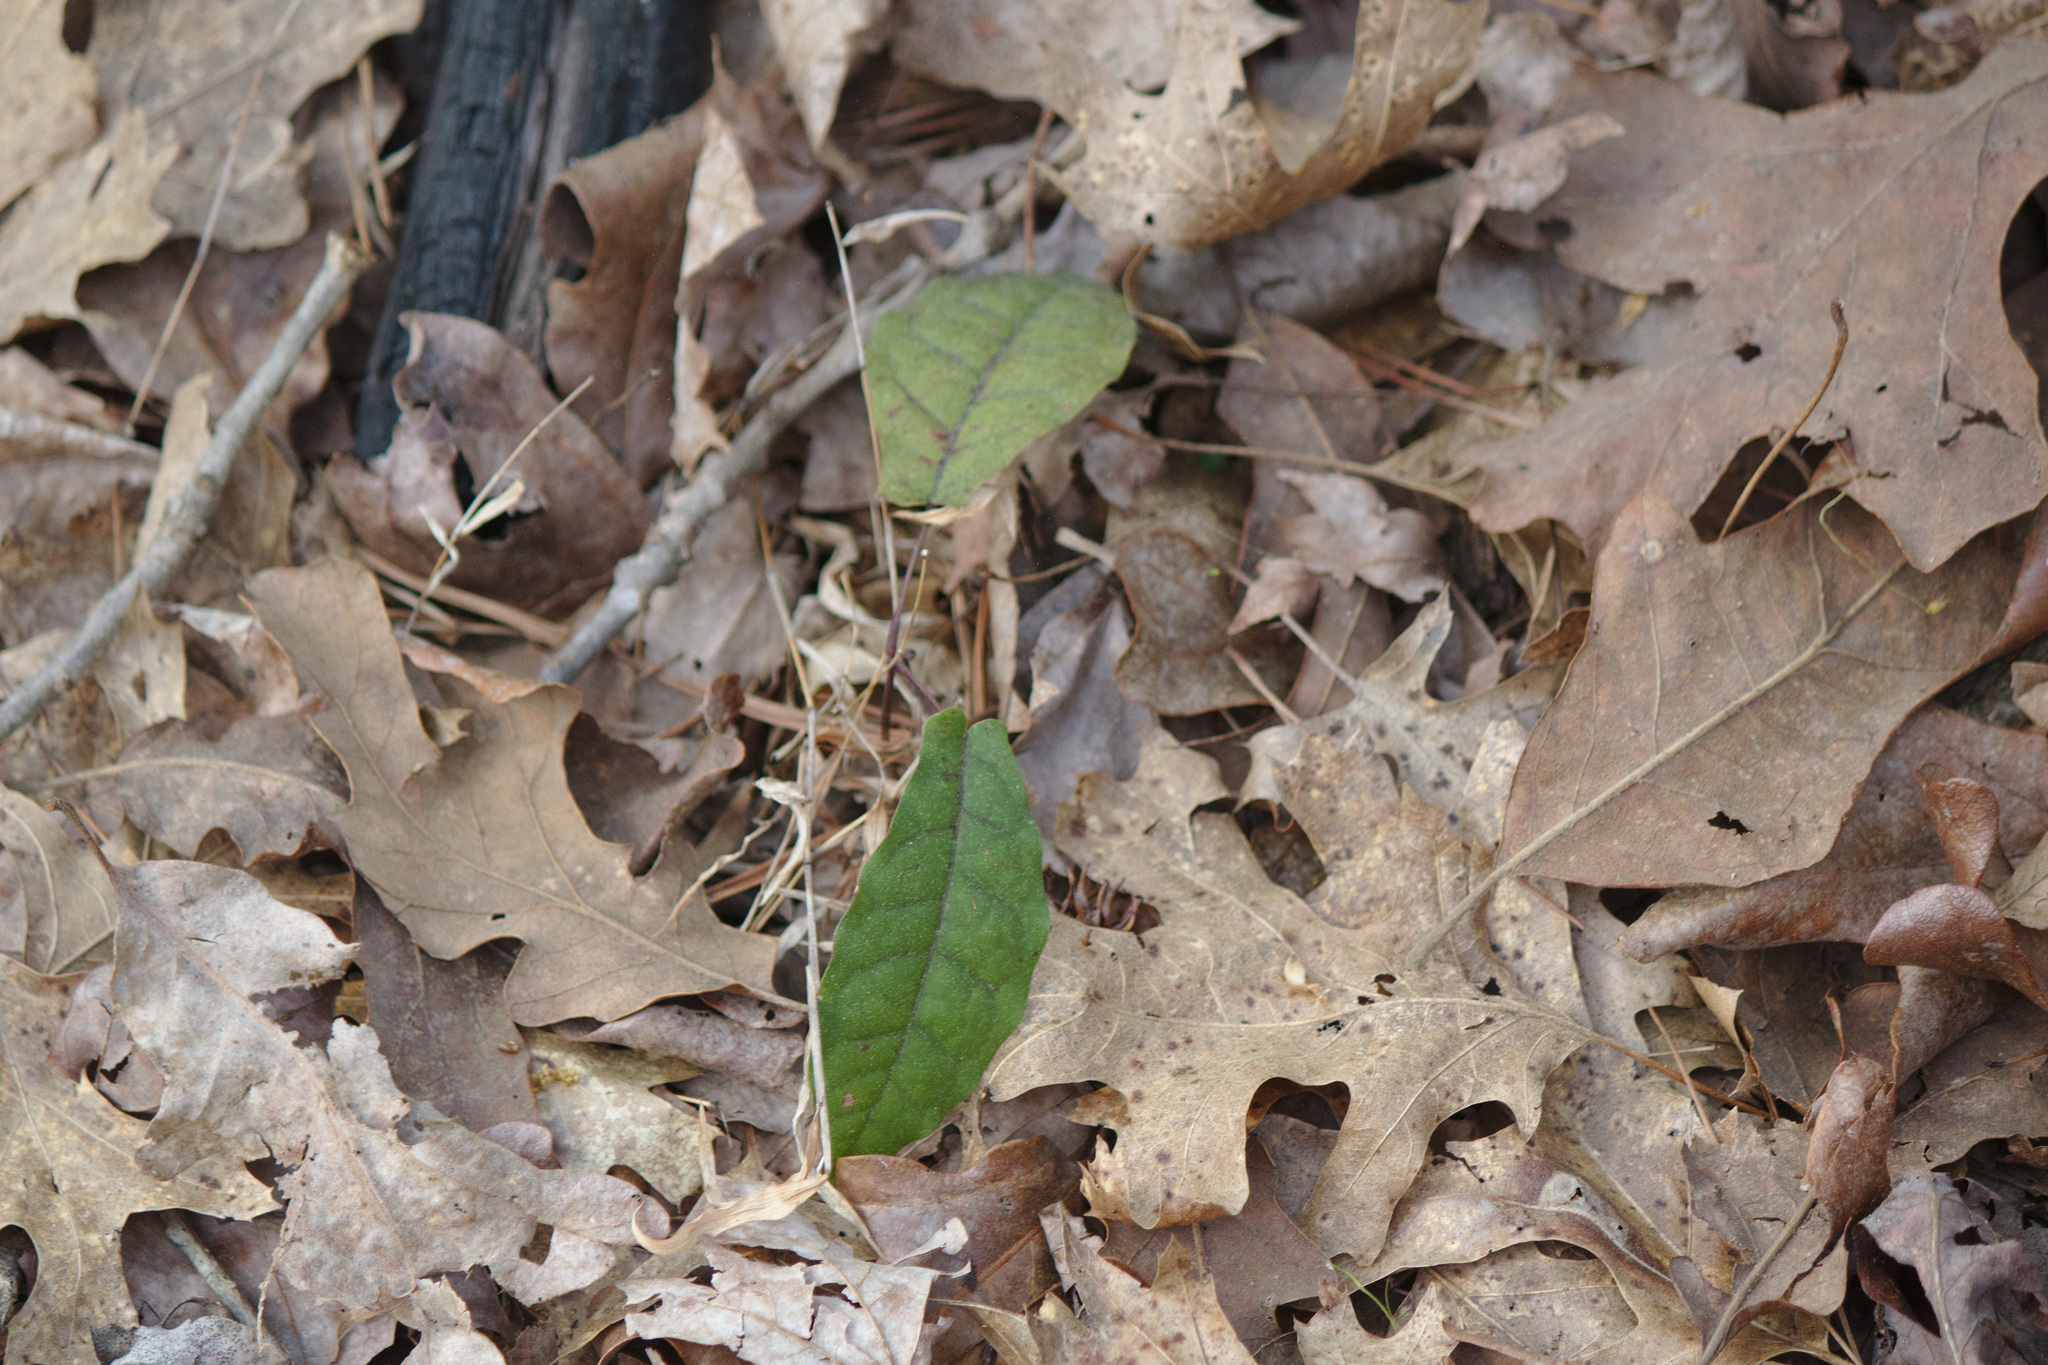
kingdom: Plantae
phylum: Tracheophyta
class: Magnoliopsida
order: Lamiales
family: Bignoniaceae
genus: Bignonia
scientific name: Bignonia capreolata
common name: Crossvine
